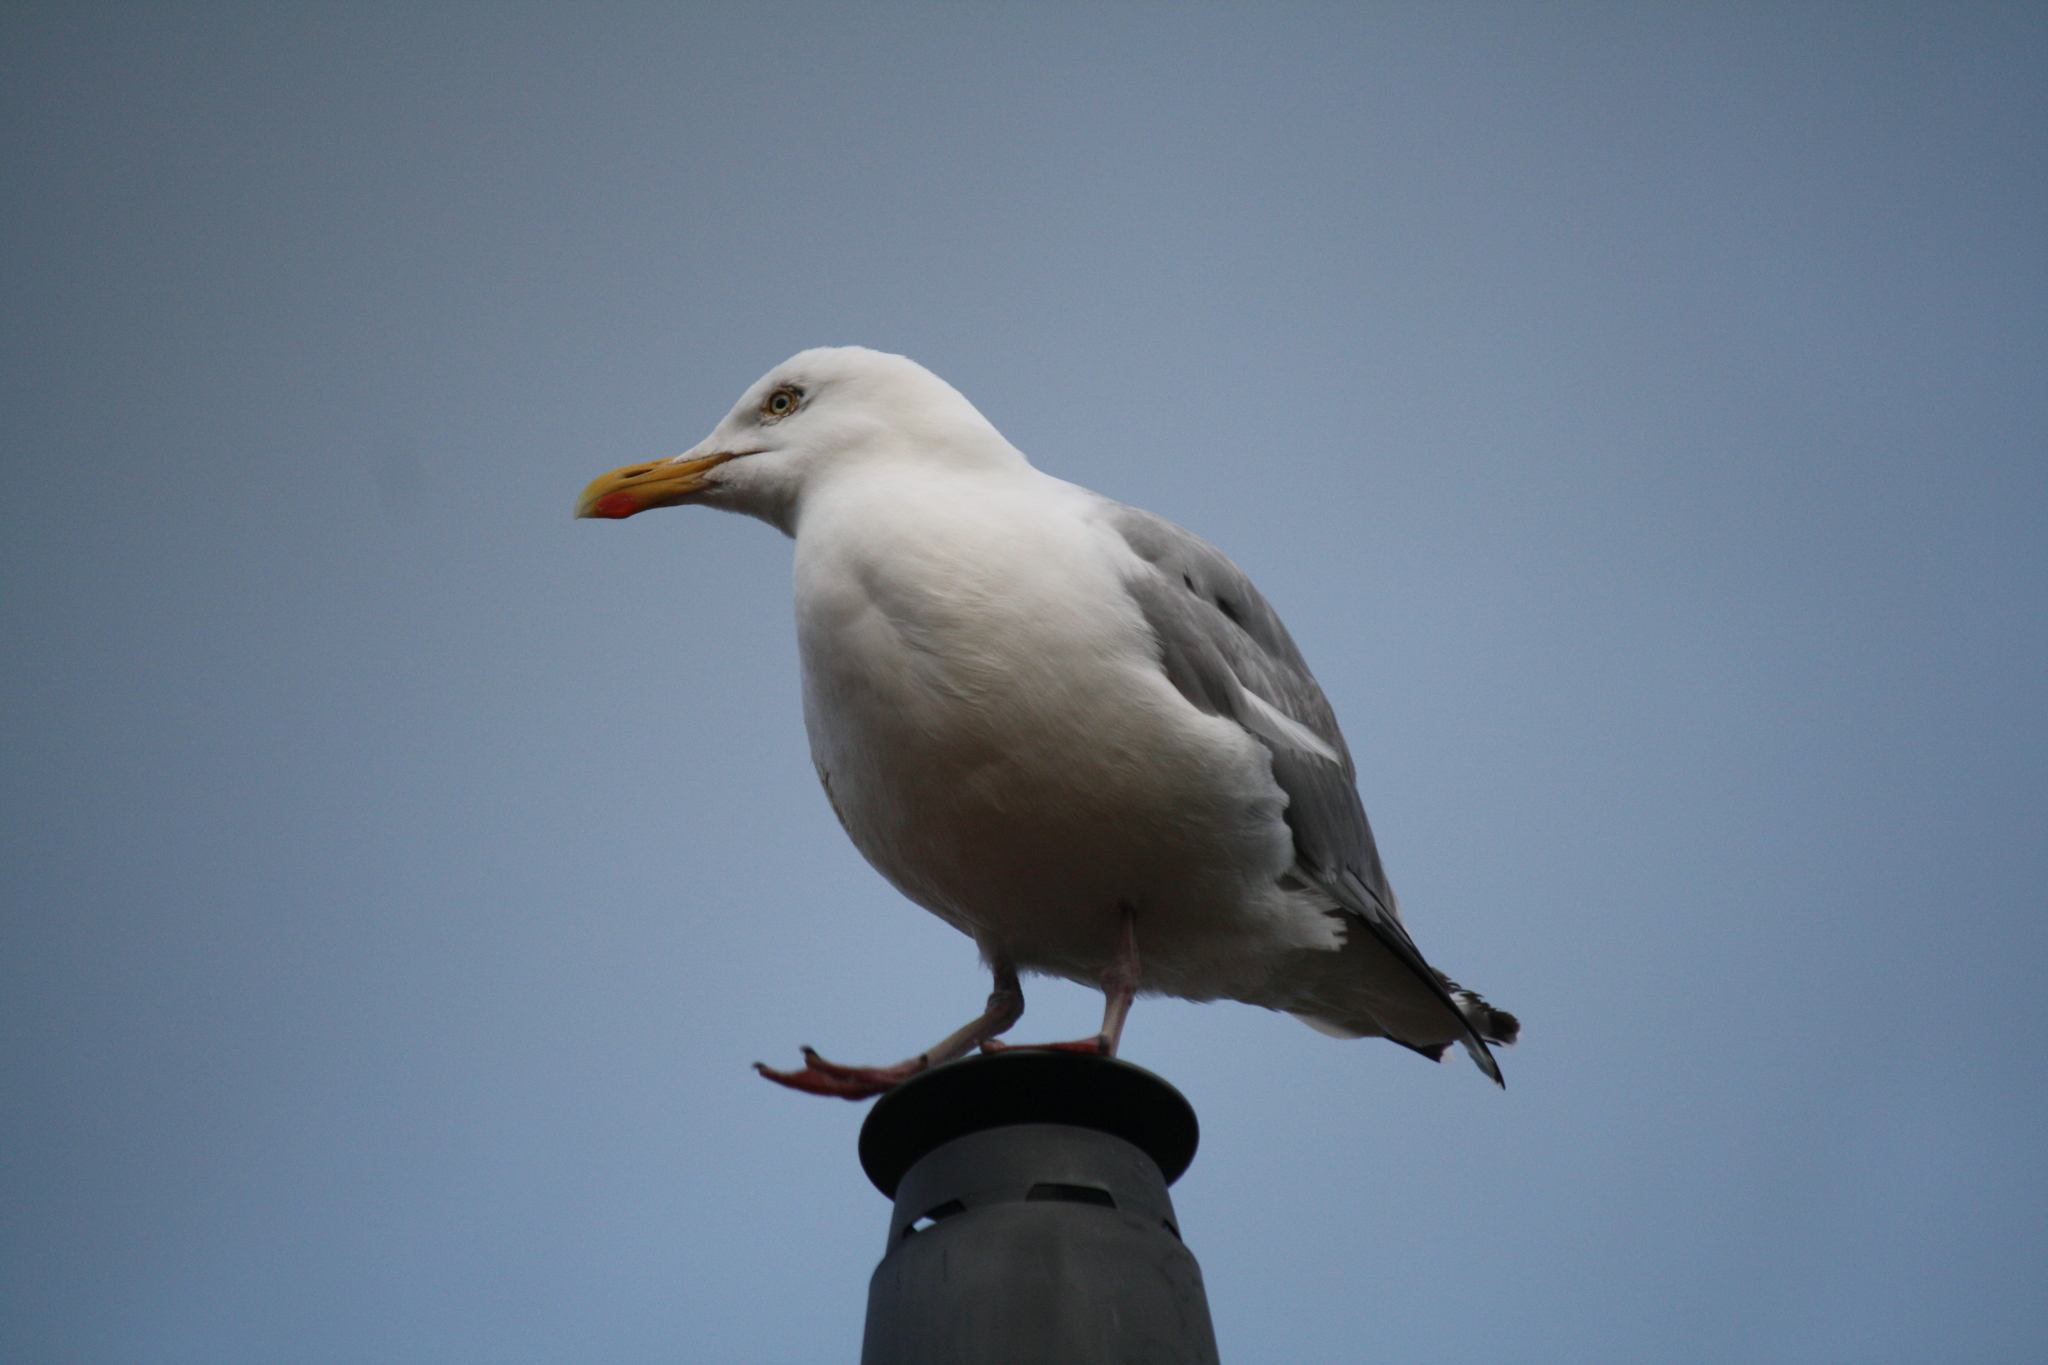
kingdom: Animalia
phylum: Chordata
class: Aves
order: Charadriiformes
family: Laridae
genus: Larus
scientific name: Larus argentatus
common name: Herring gull
